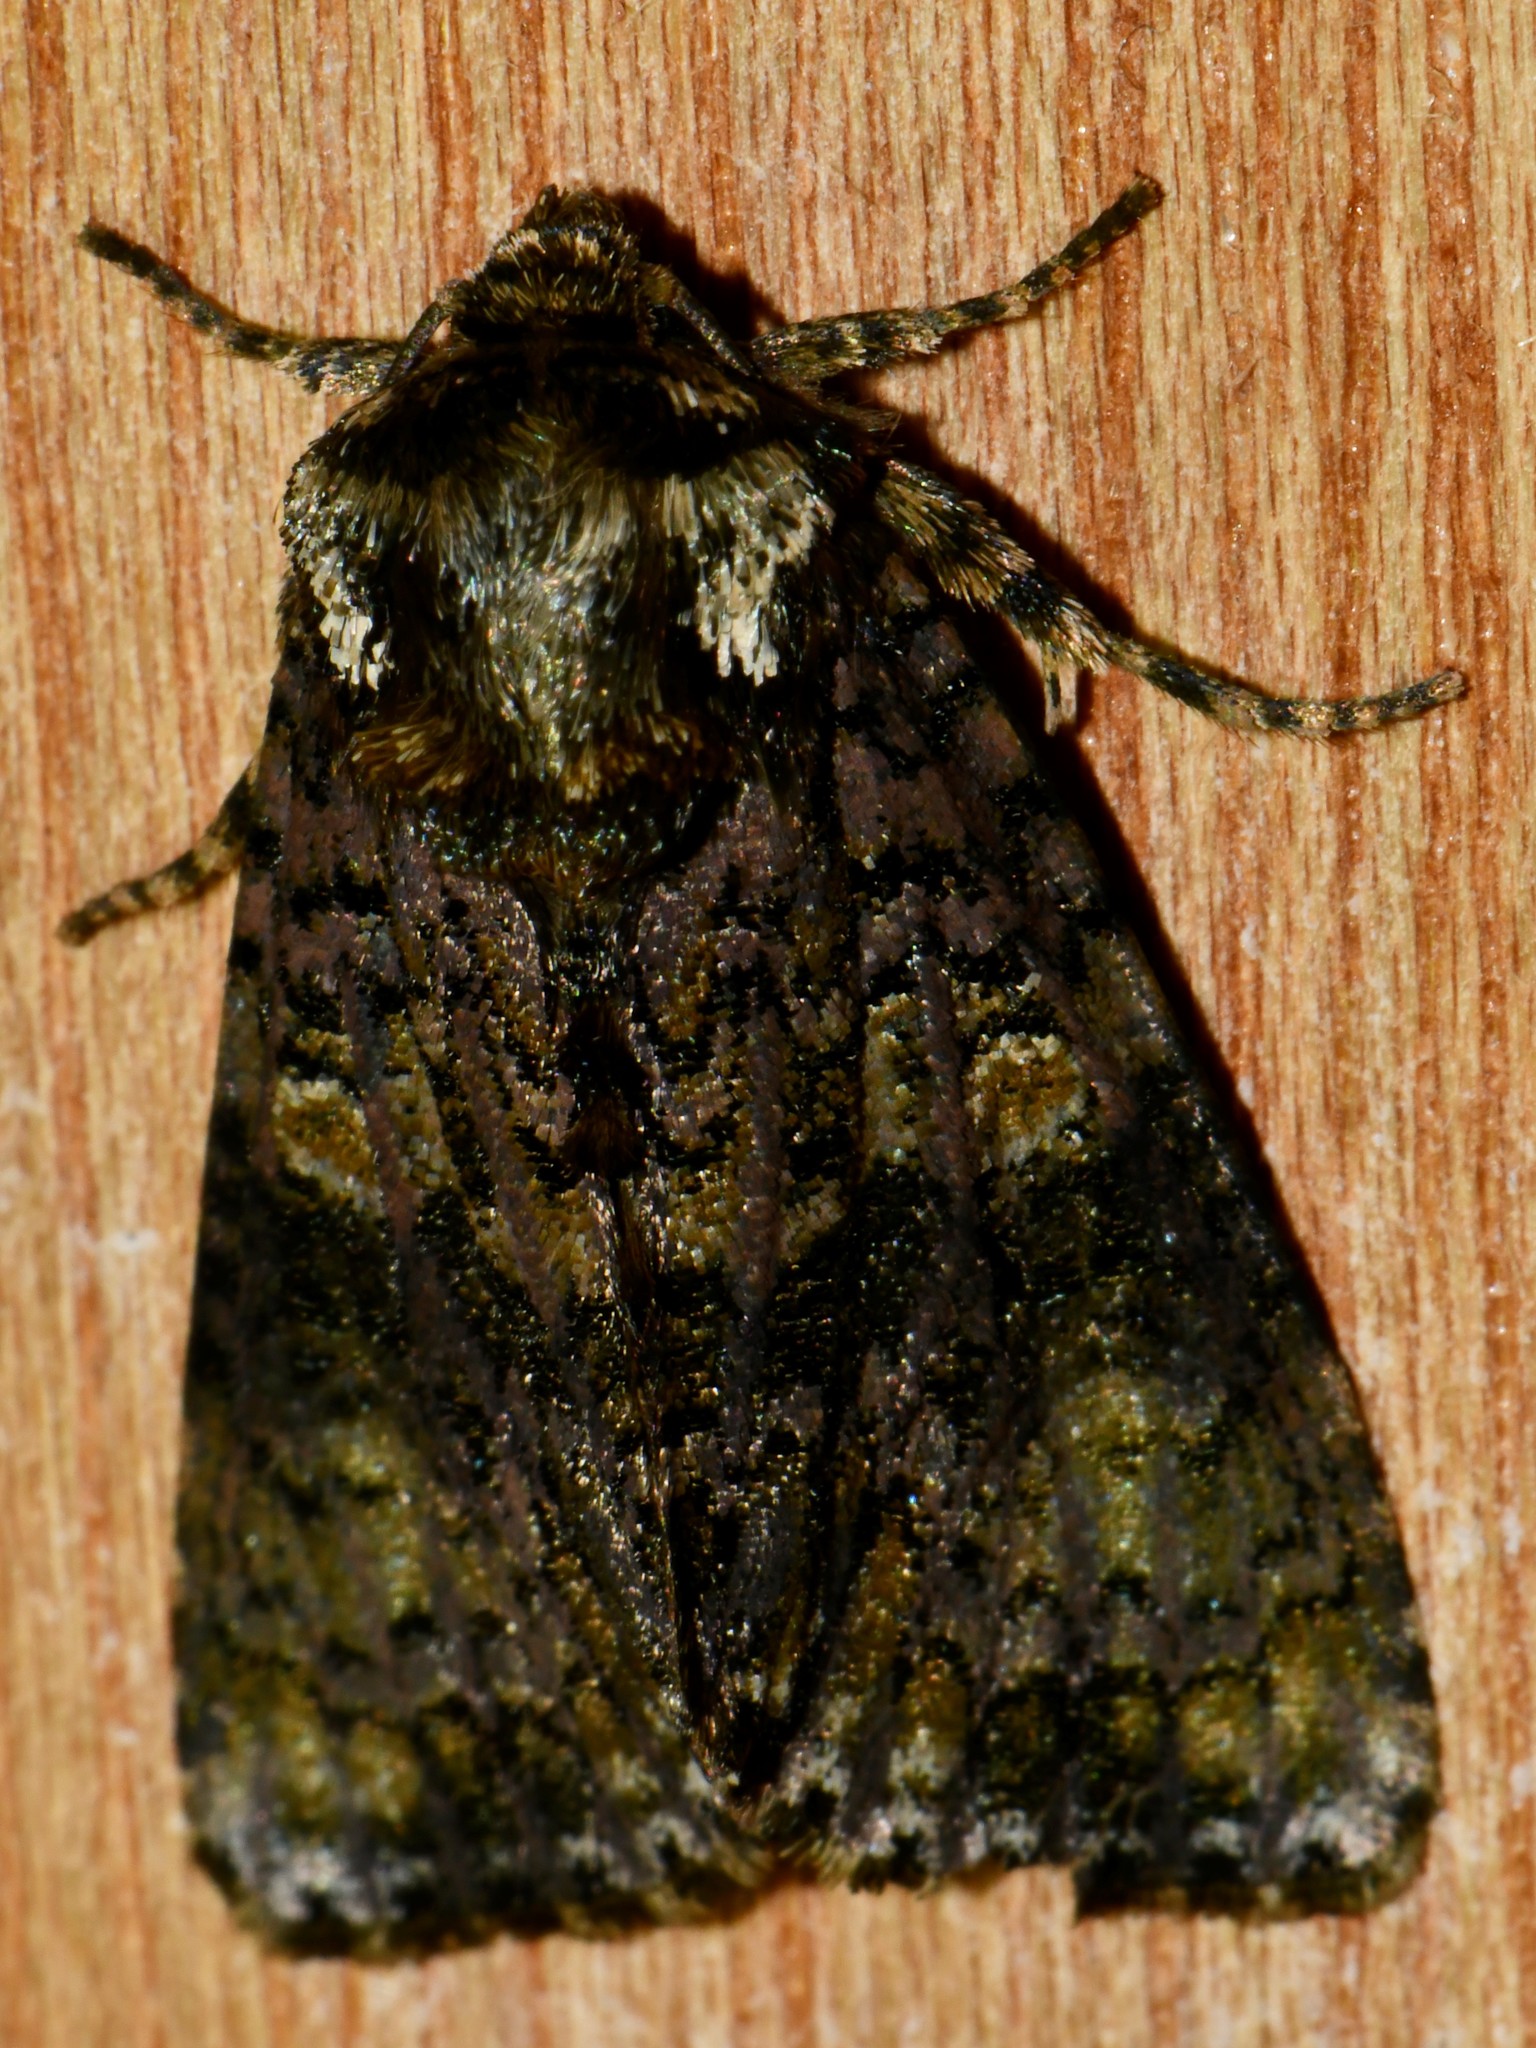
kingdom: Animalia
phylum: Arthropoda
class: Insecta
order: Lepidoptera
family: Noctuidae
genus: Craniophora
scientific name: Craniophora ligustri
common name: Coronet
